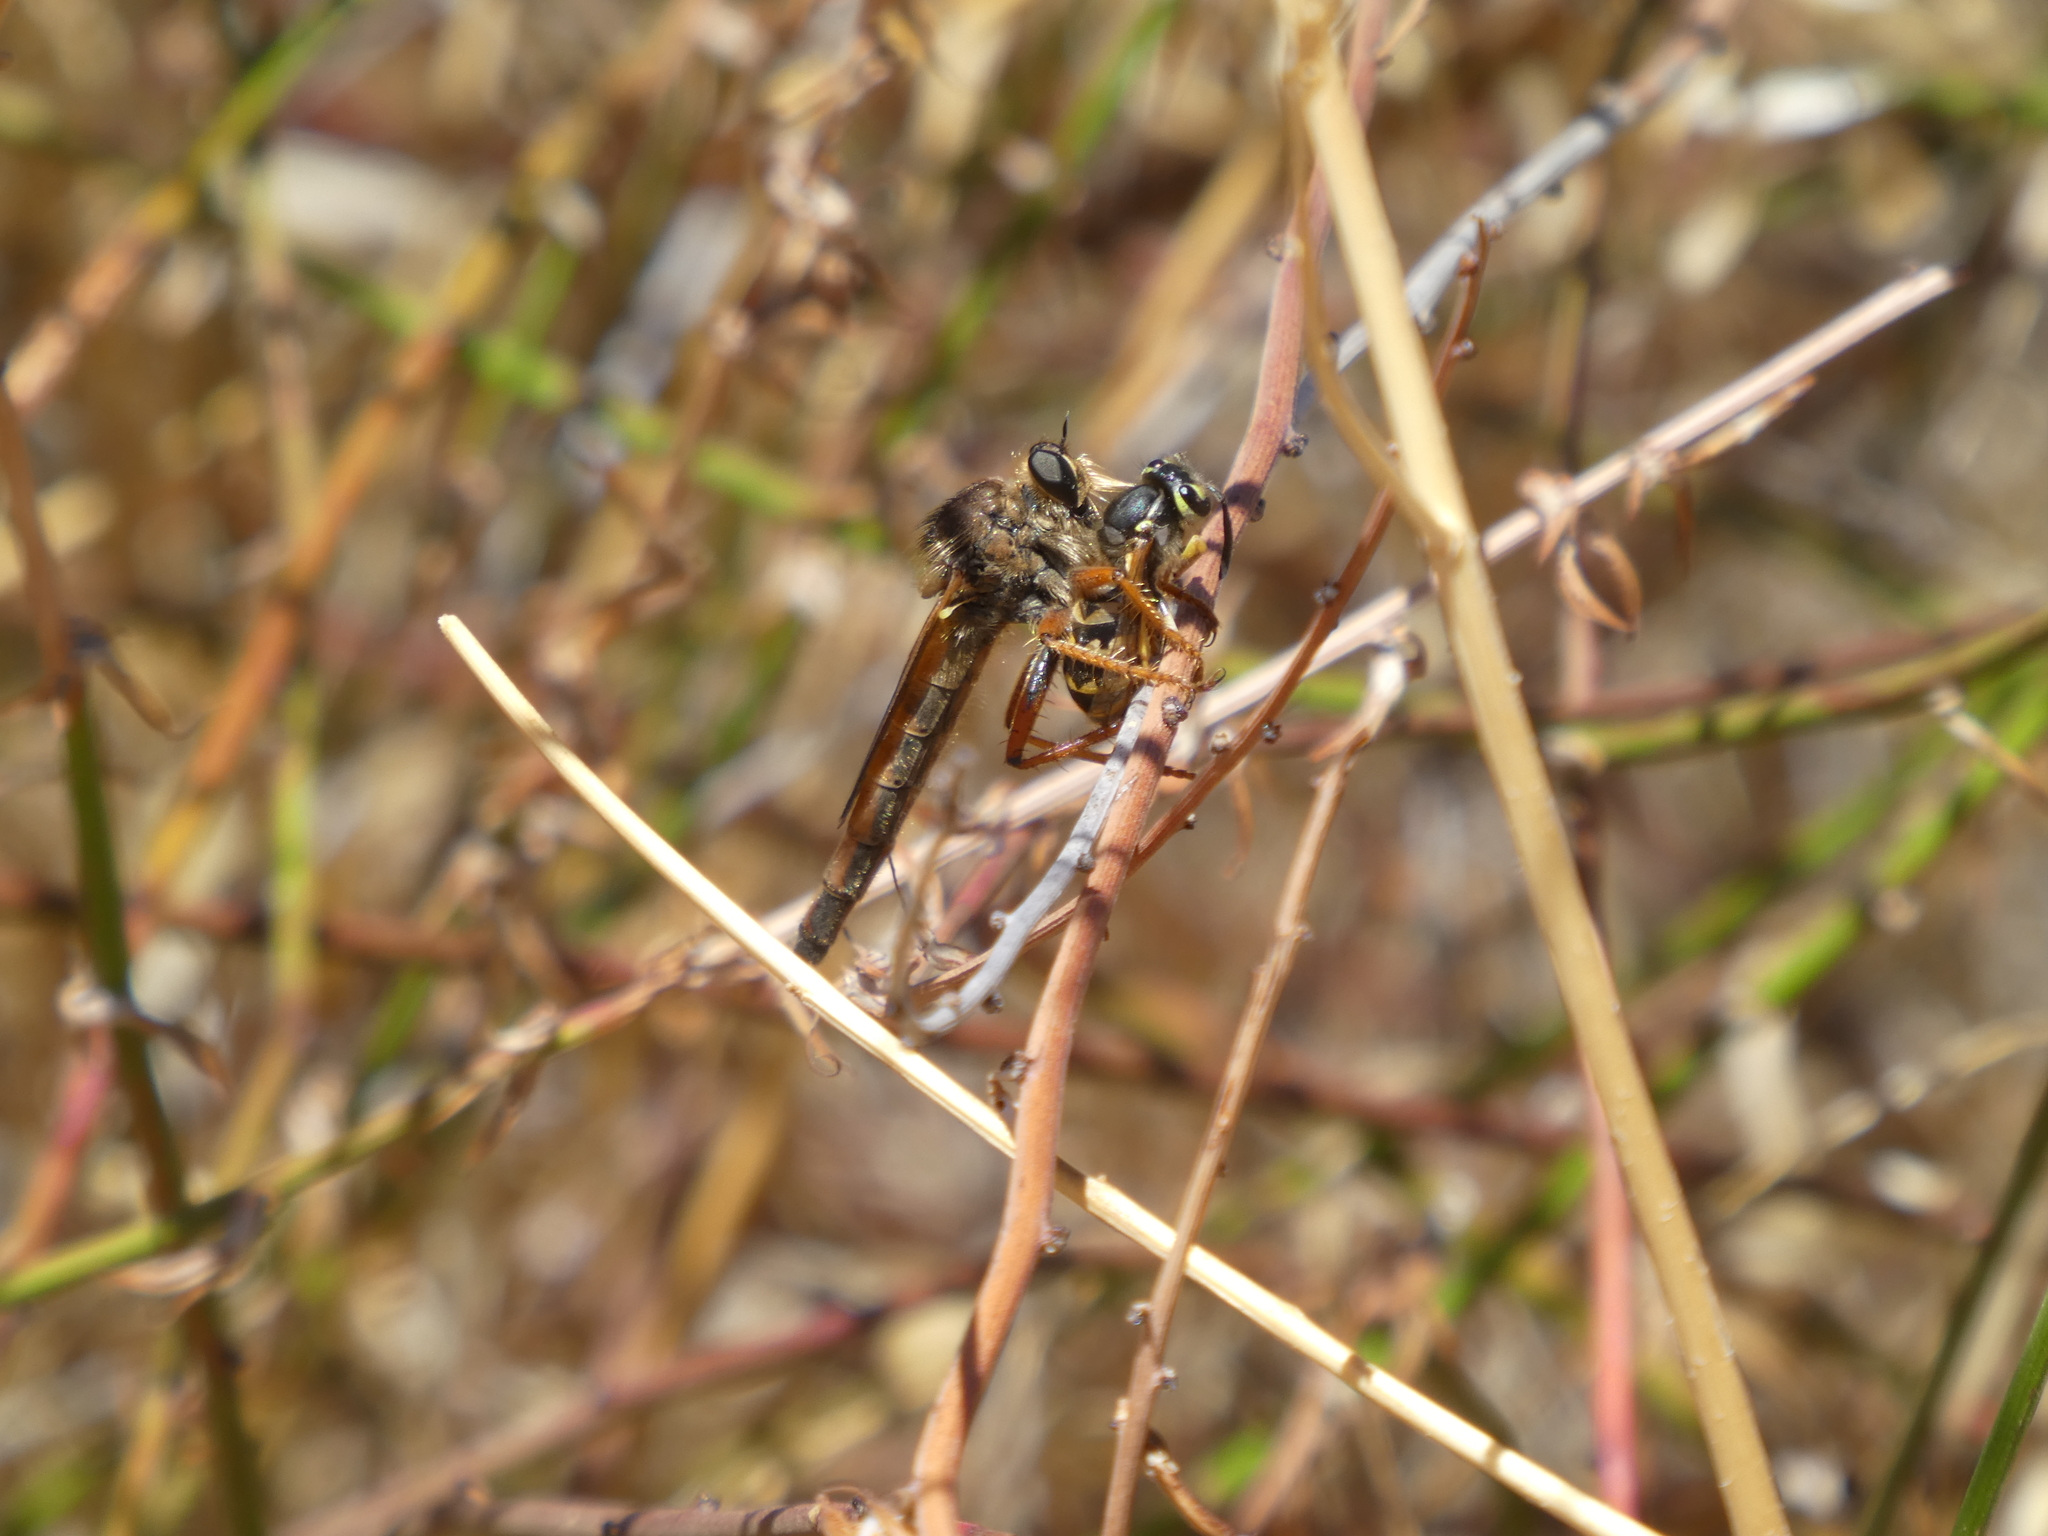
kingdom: Animalia
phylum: Arthropoda
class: Insecta
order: Hymenoptera
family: Vespidae
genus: Vespula
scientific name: Vespula pensylvanica
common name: Western yellowjacket
